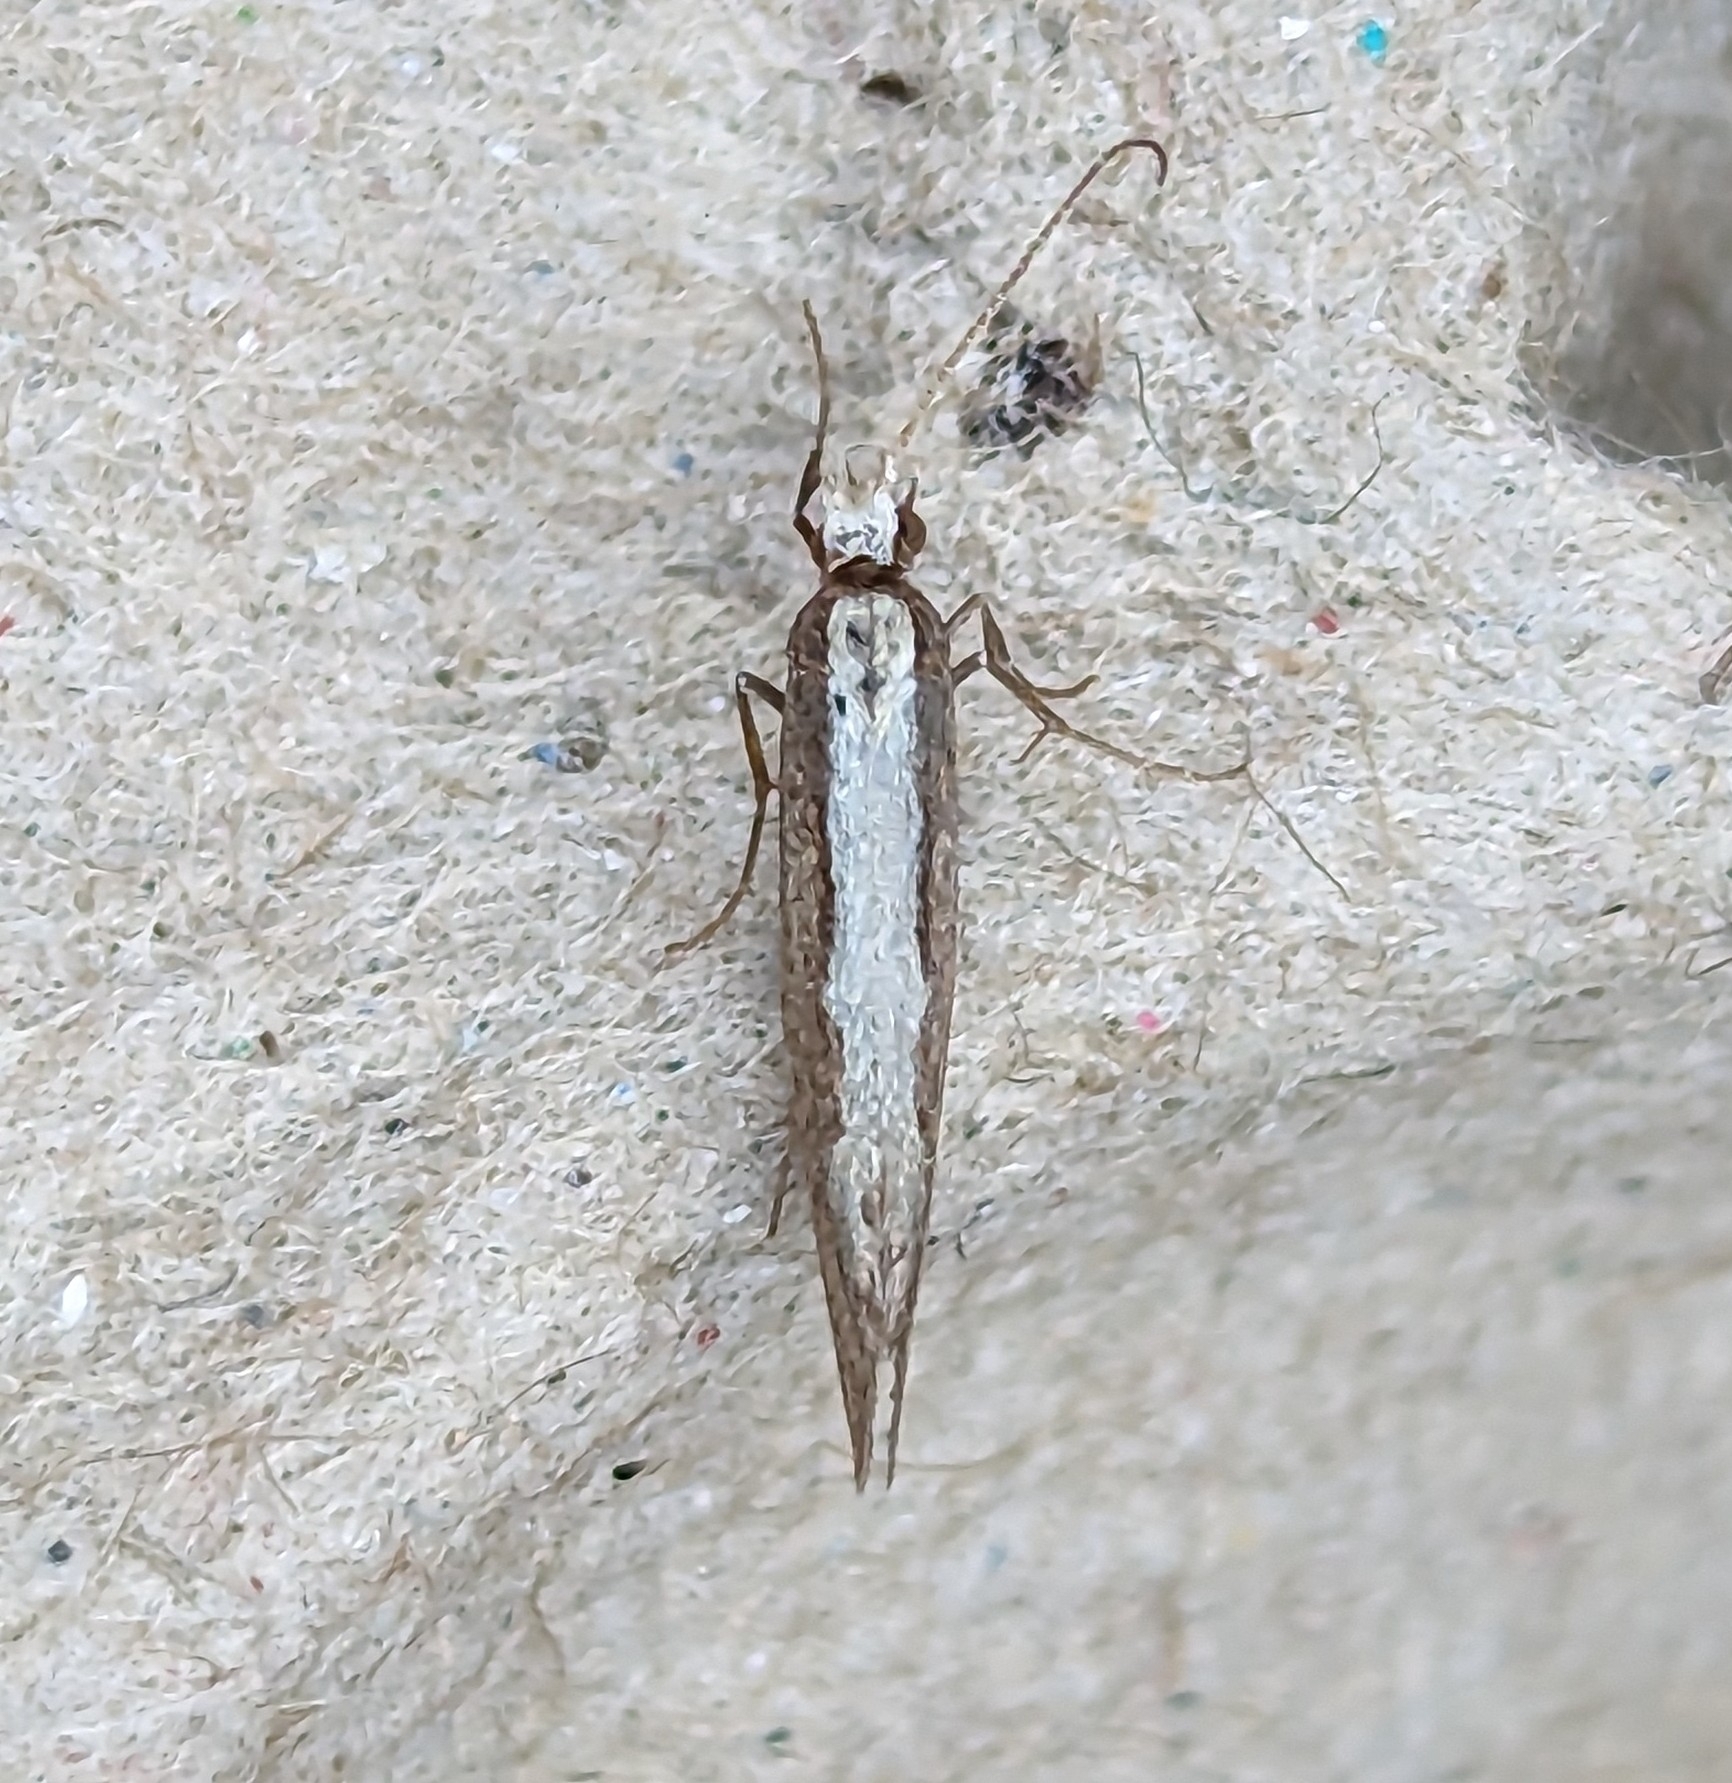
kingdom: Animalia
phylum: Arthropoda
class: Insecta
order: Lepidoptera
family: Plutellidae
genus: Plutella
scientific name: Plutella xylostella
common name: Diamond-back moth
